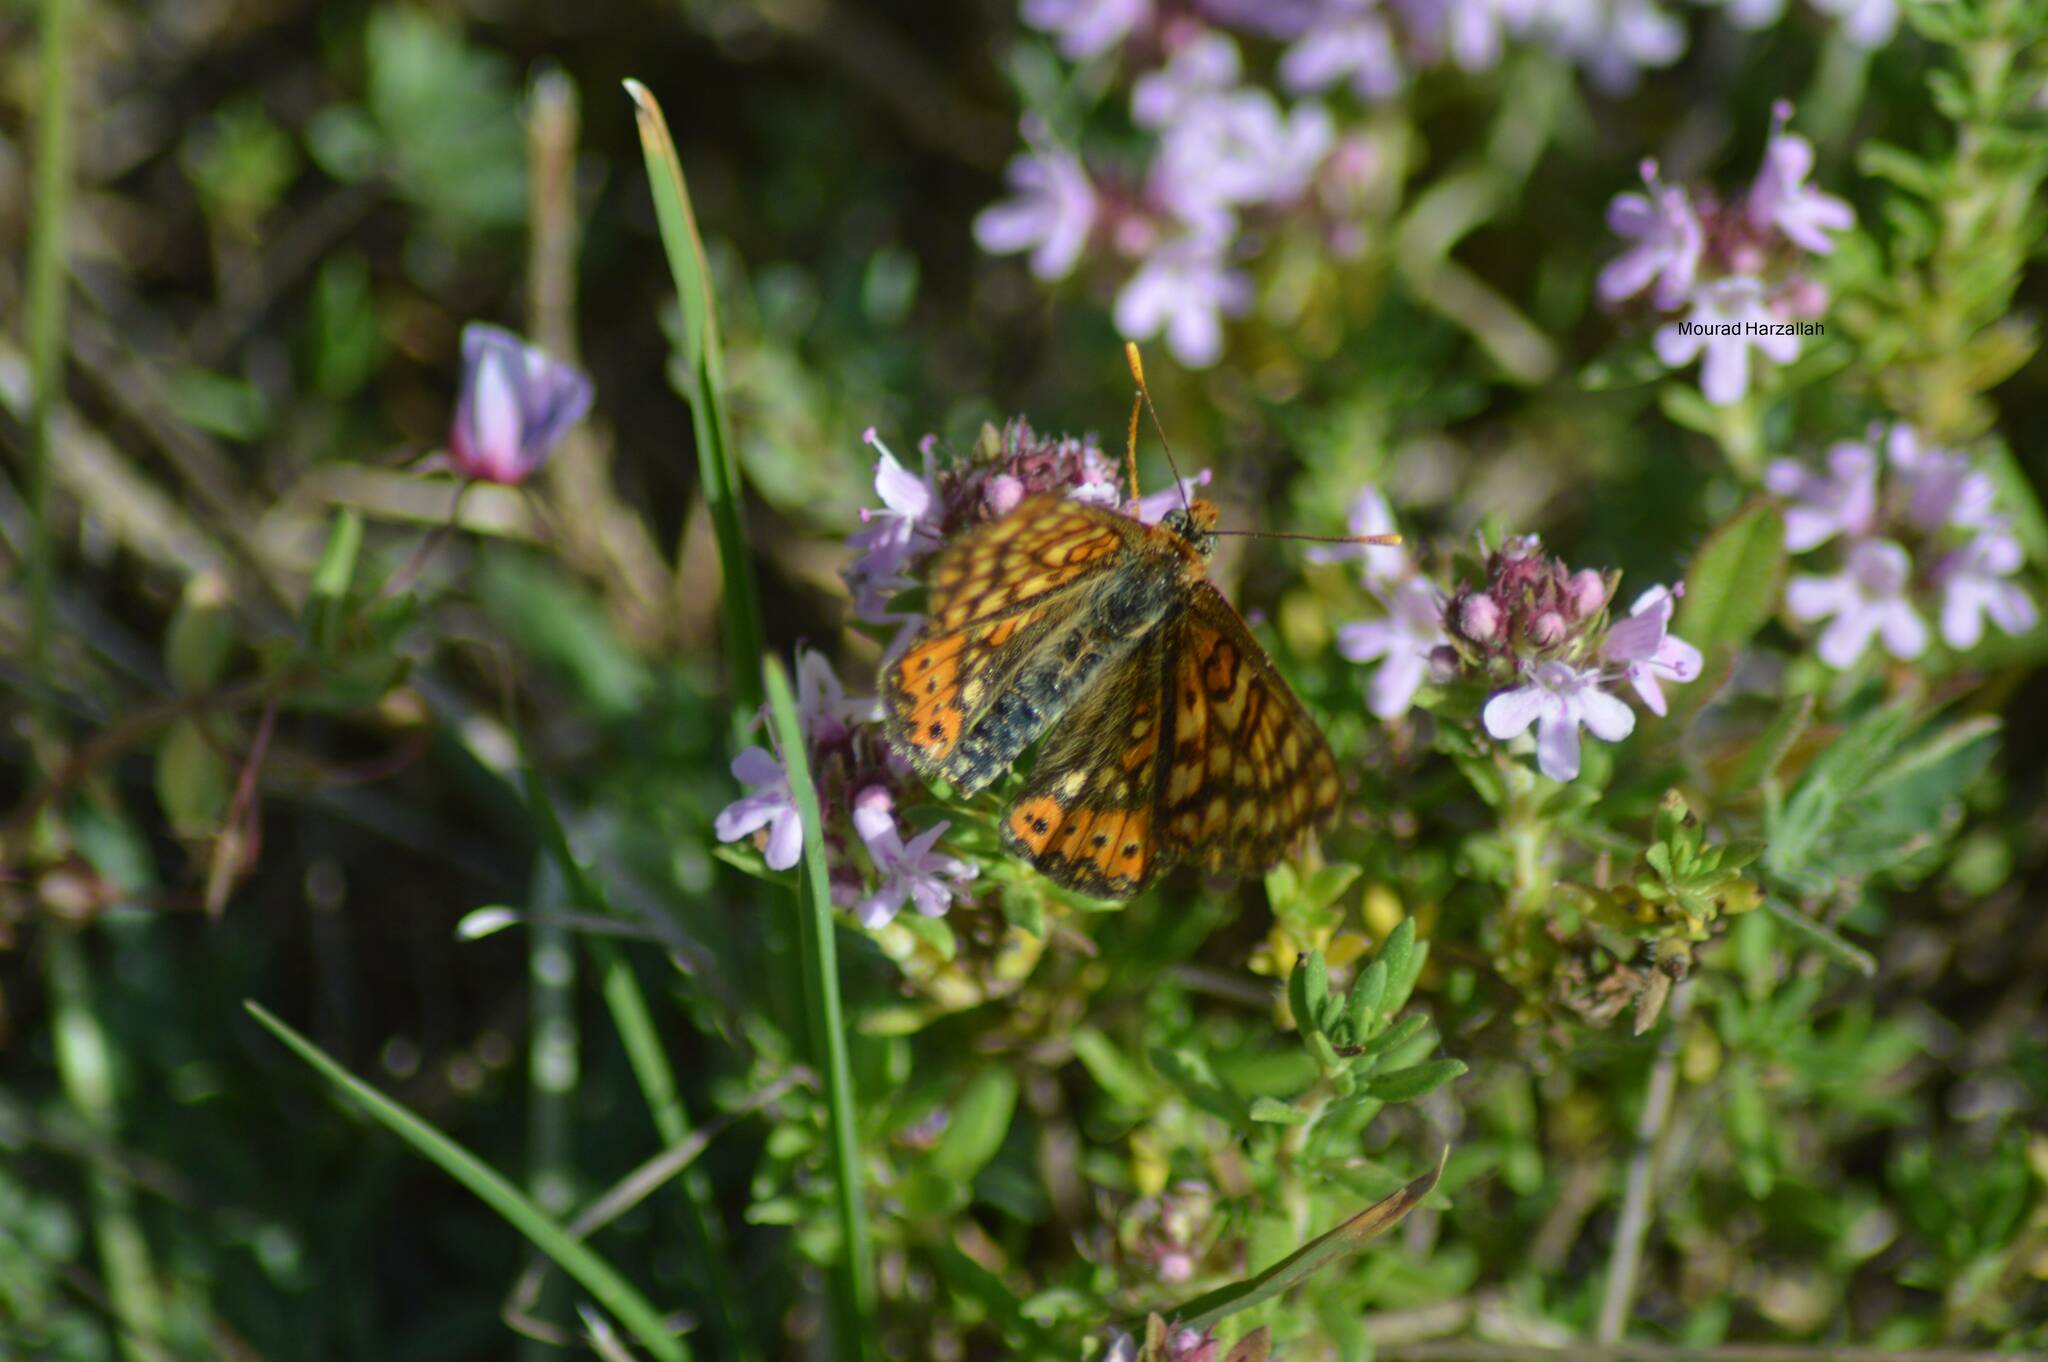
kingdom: Animalia
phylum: Arthropoda
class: Insecta
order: Lepidoptera
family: Nymphalidae
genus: Euphydryas
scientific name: Euphydryas aurinia
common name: Marsh fritillary
